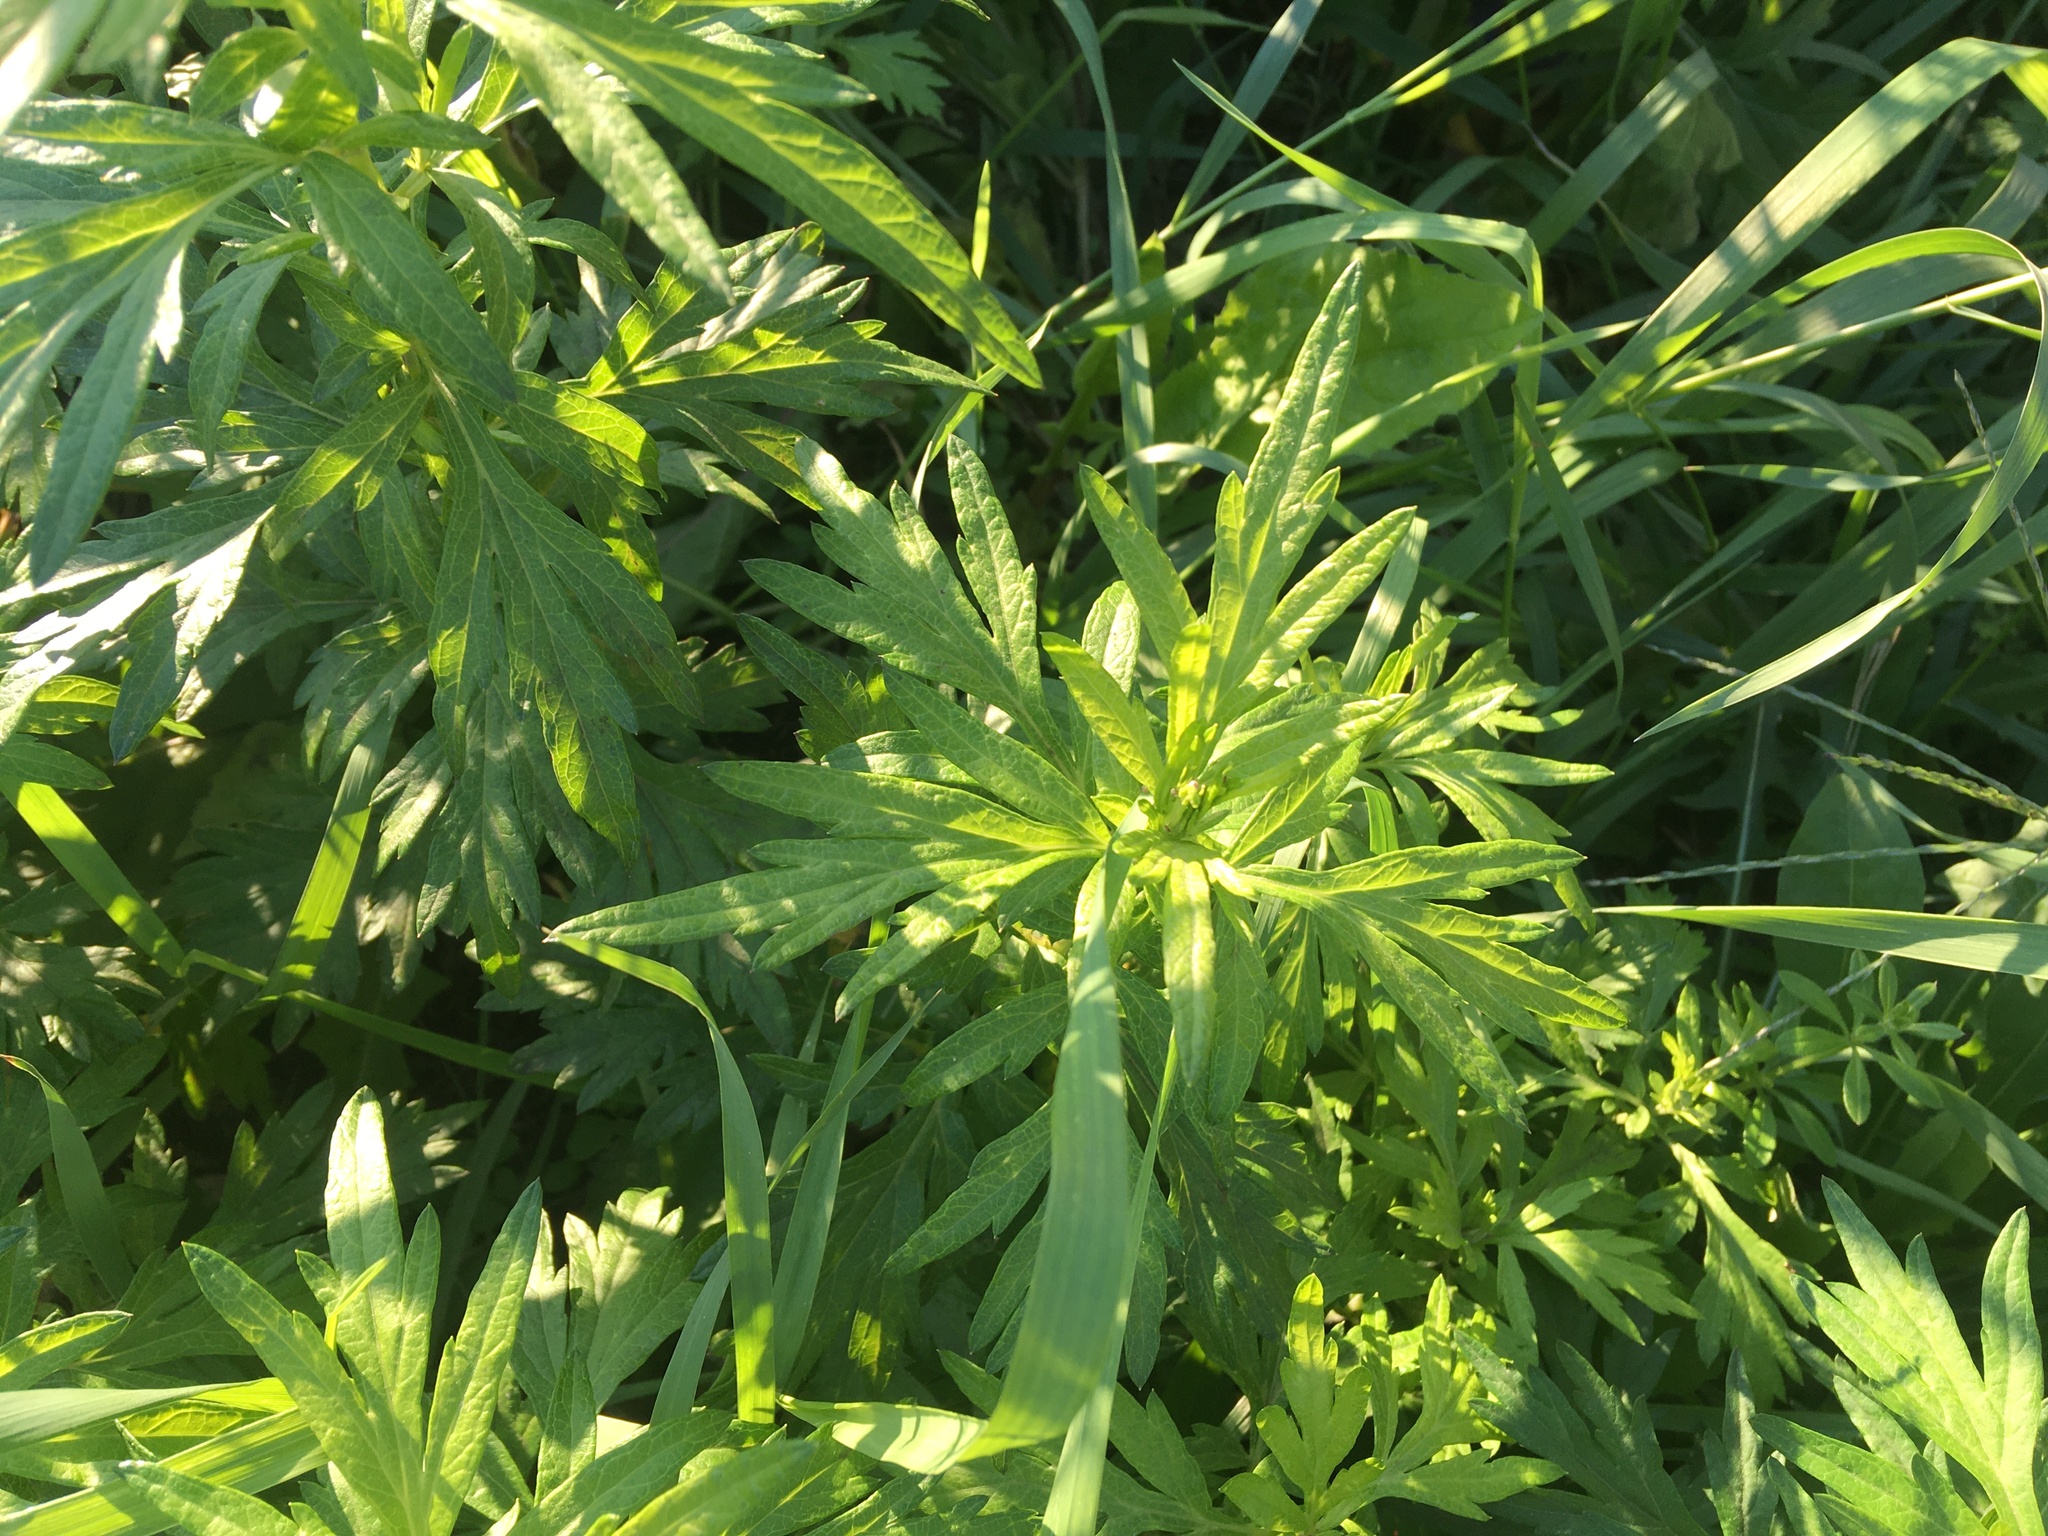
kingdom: Plantae
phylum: Tracheophyta
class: Magnoliopsida
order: Asterales
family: Asteraceae
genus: Artemisia
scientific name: Artemisia vulgaris
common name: Mugwort
